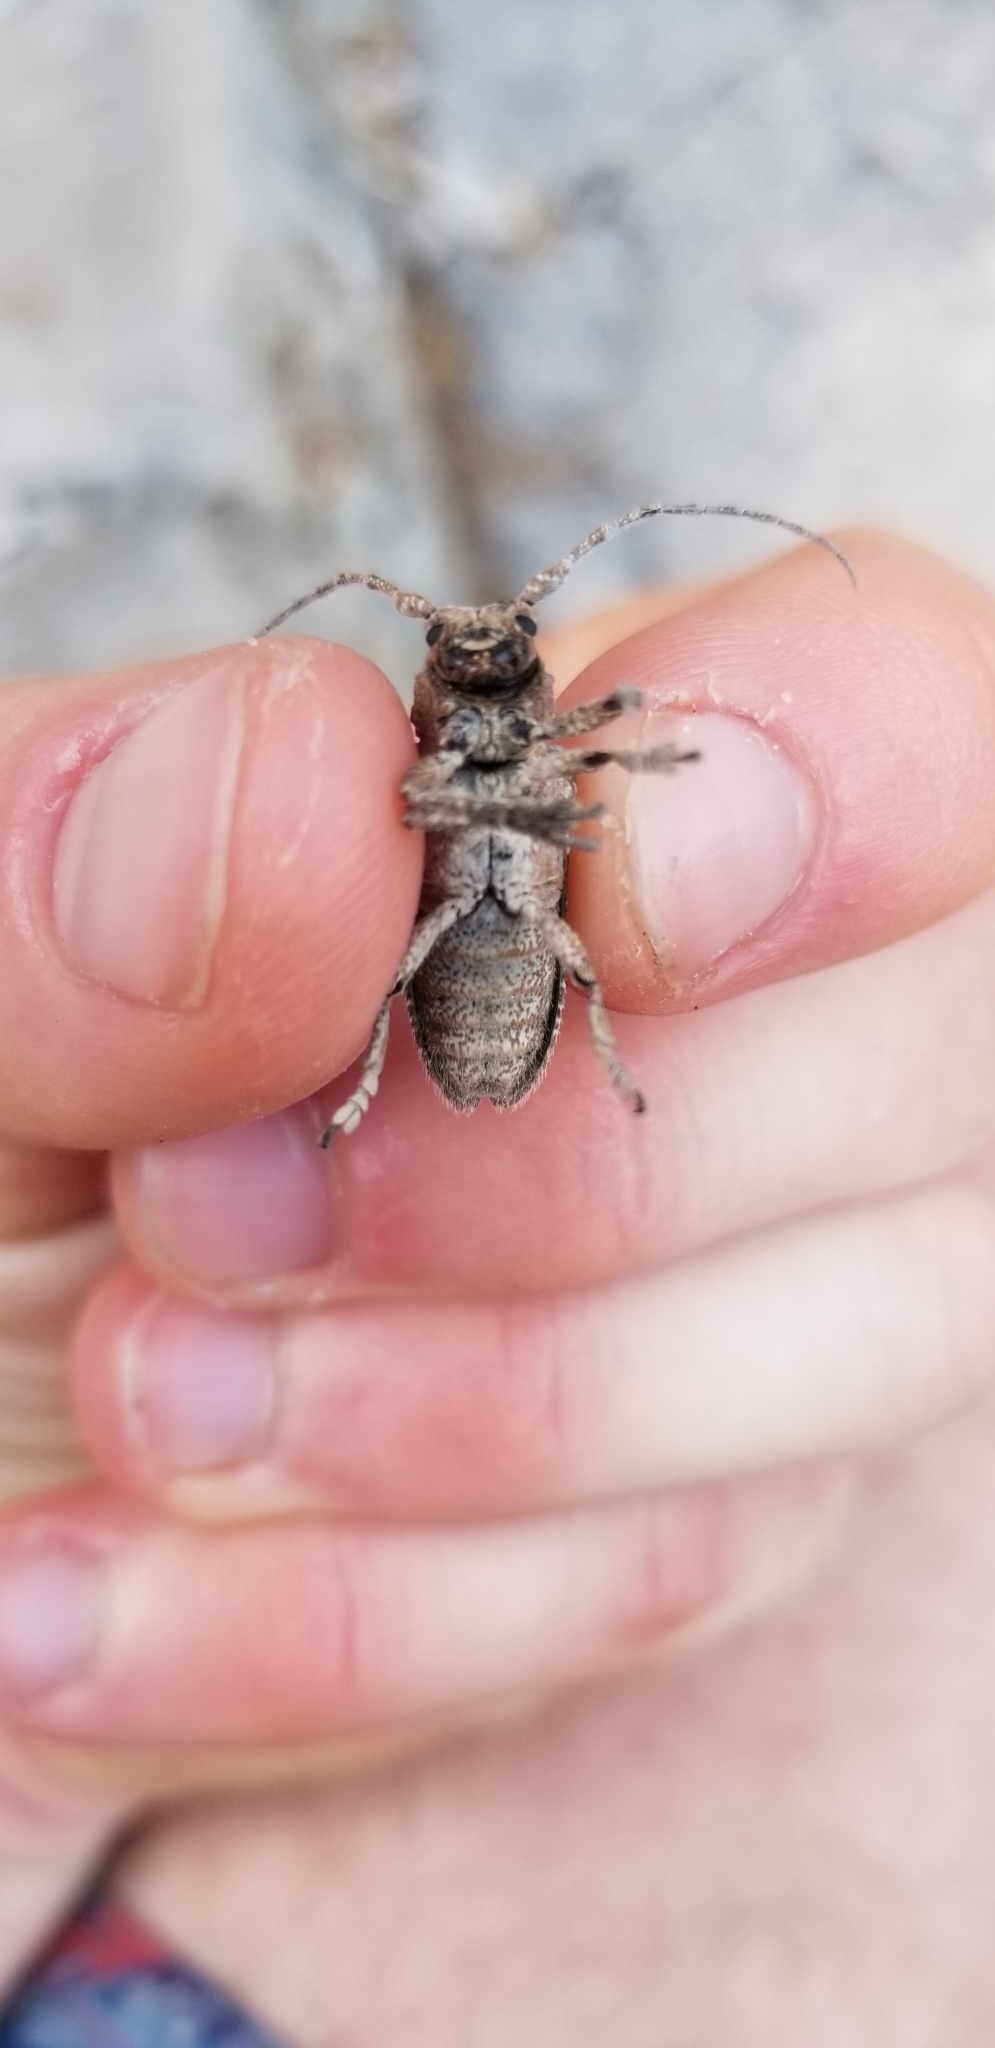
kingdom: Animalia
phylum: Arthropoda
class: Insecta
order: Coleoptera
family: Cerambycidae
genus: Niphona
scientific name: Niphona picticornis
